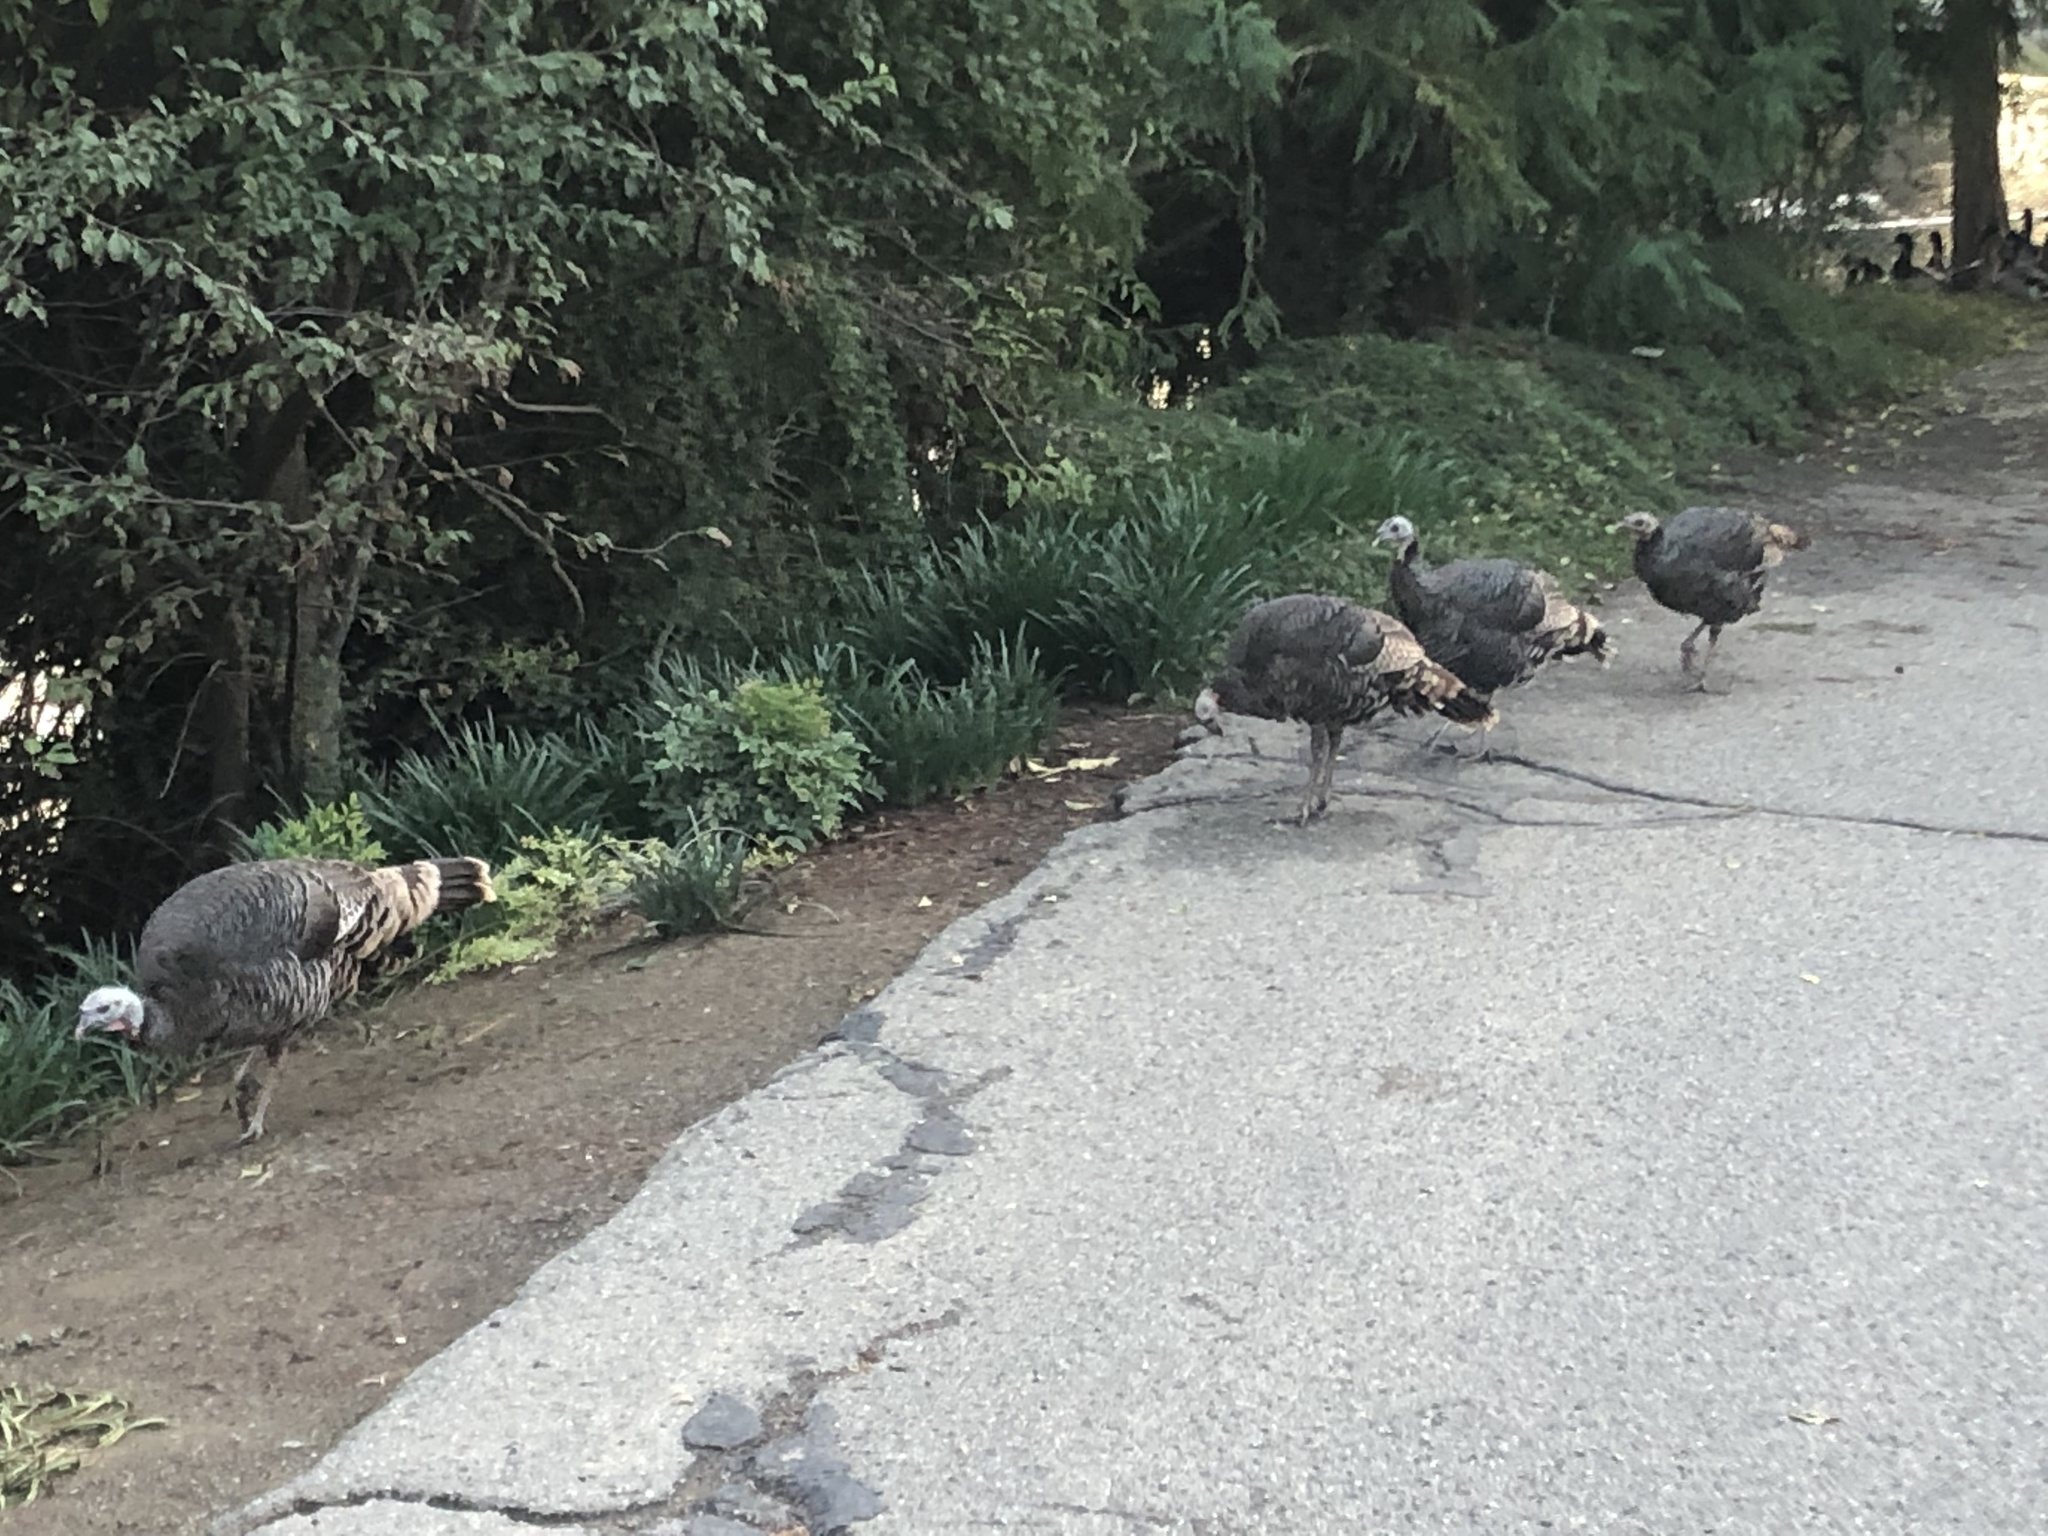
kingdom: Animalia
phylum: Chordata
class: Aves
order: Galliformes
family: Phasianidae
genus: Meleagris
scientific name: Meleagris gallopavo
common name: Wild turkey
